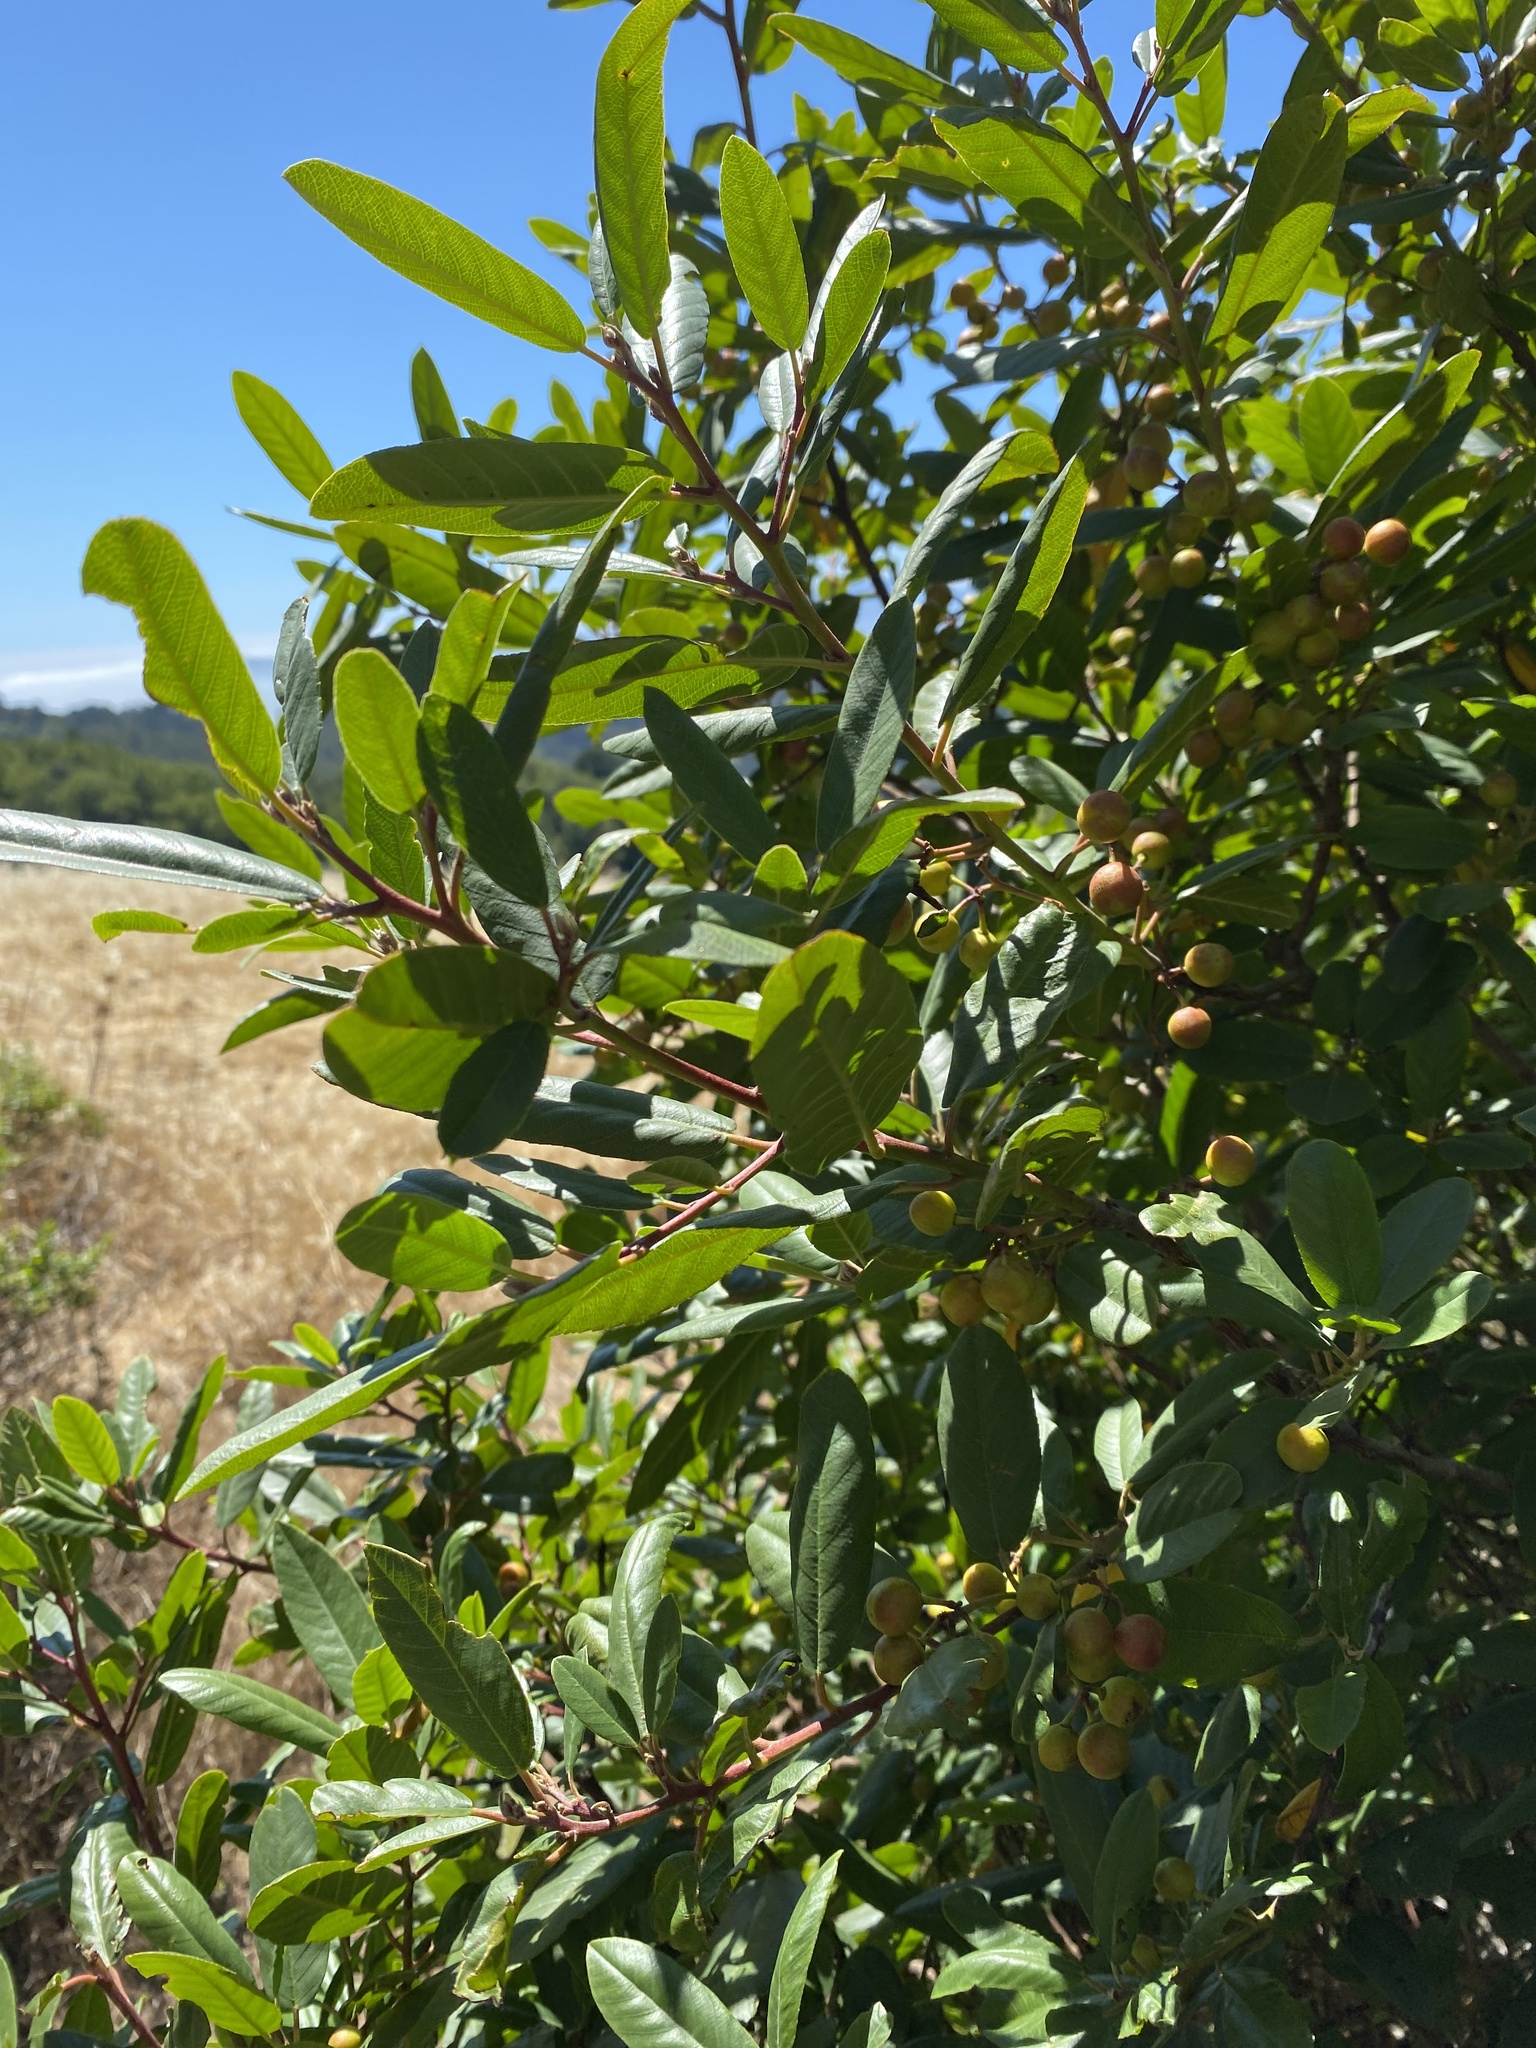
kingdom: Plantae
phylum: Tracheophyta
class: Magnoliopsida
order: Rosales
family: Rhamnaceae
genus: Frangula
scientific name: Frangula californica
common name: California buckthorn
